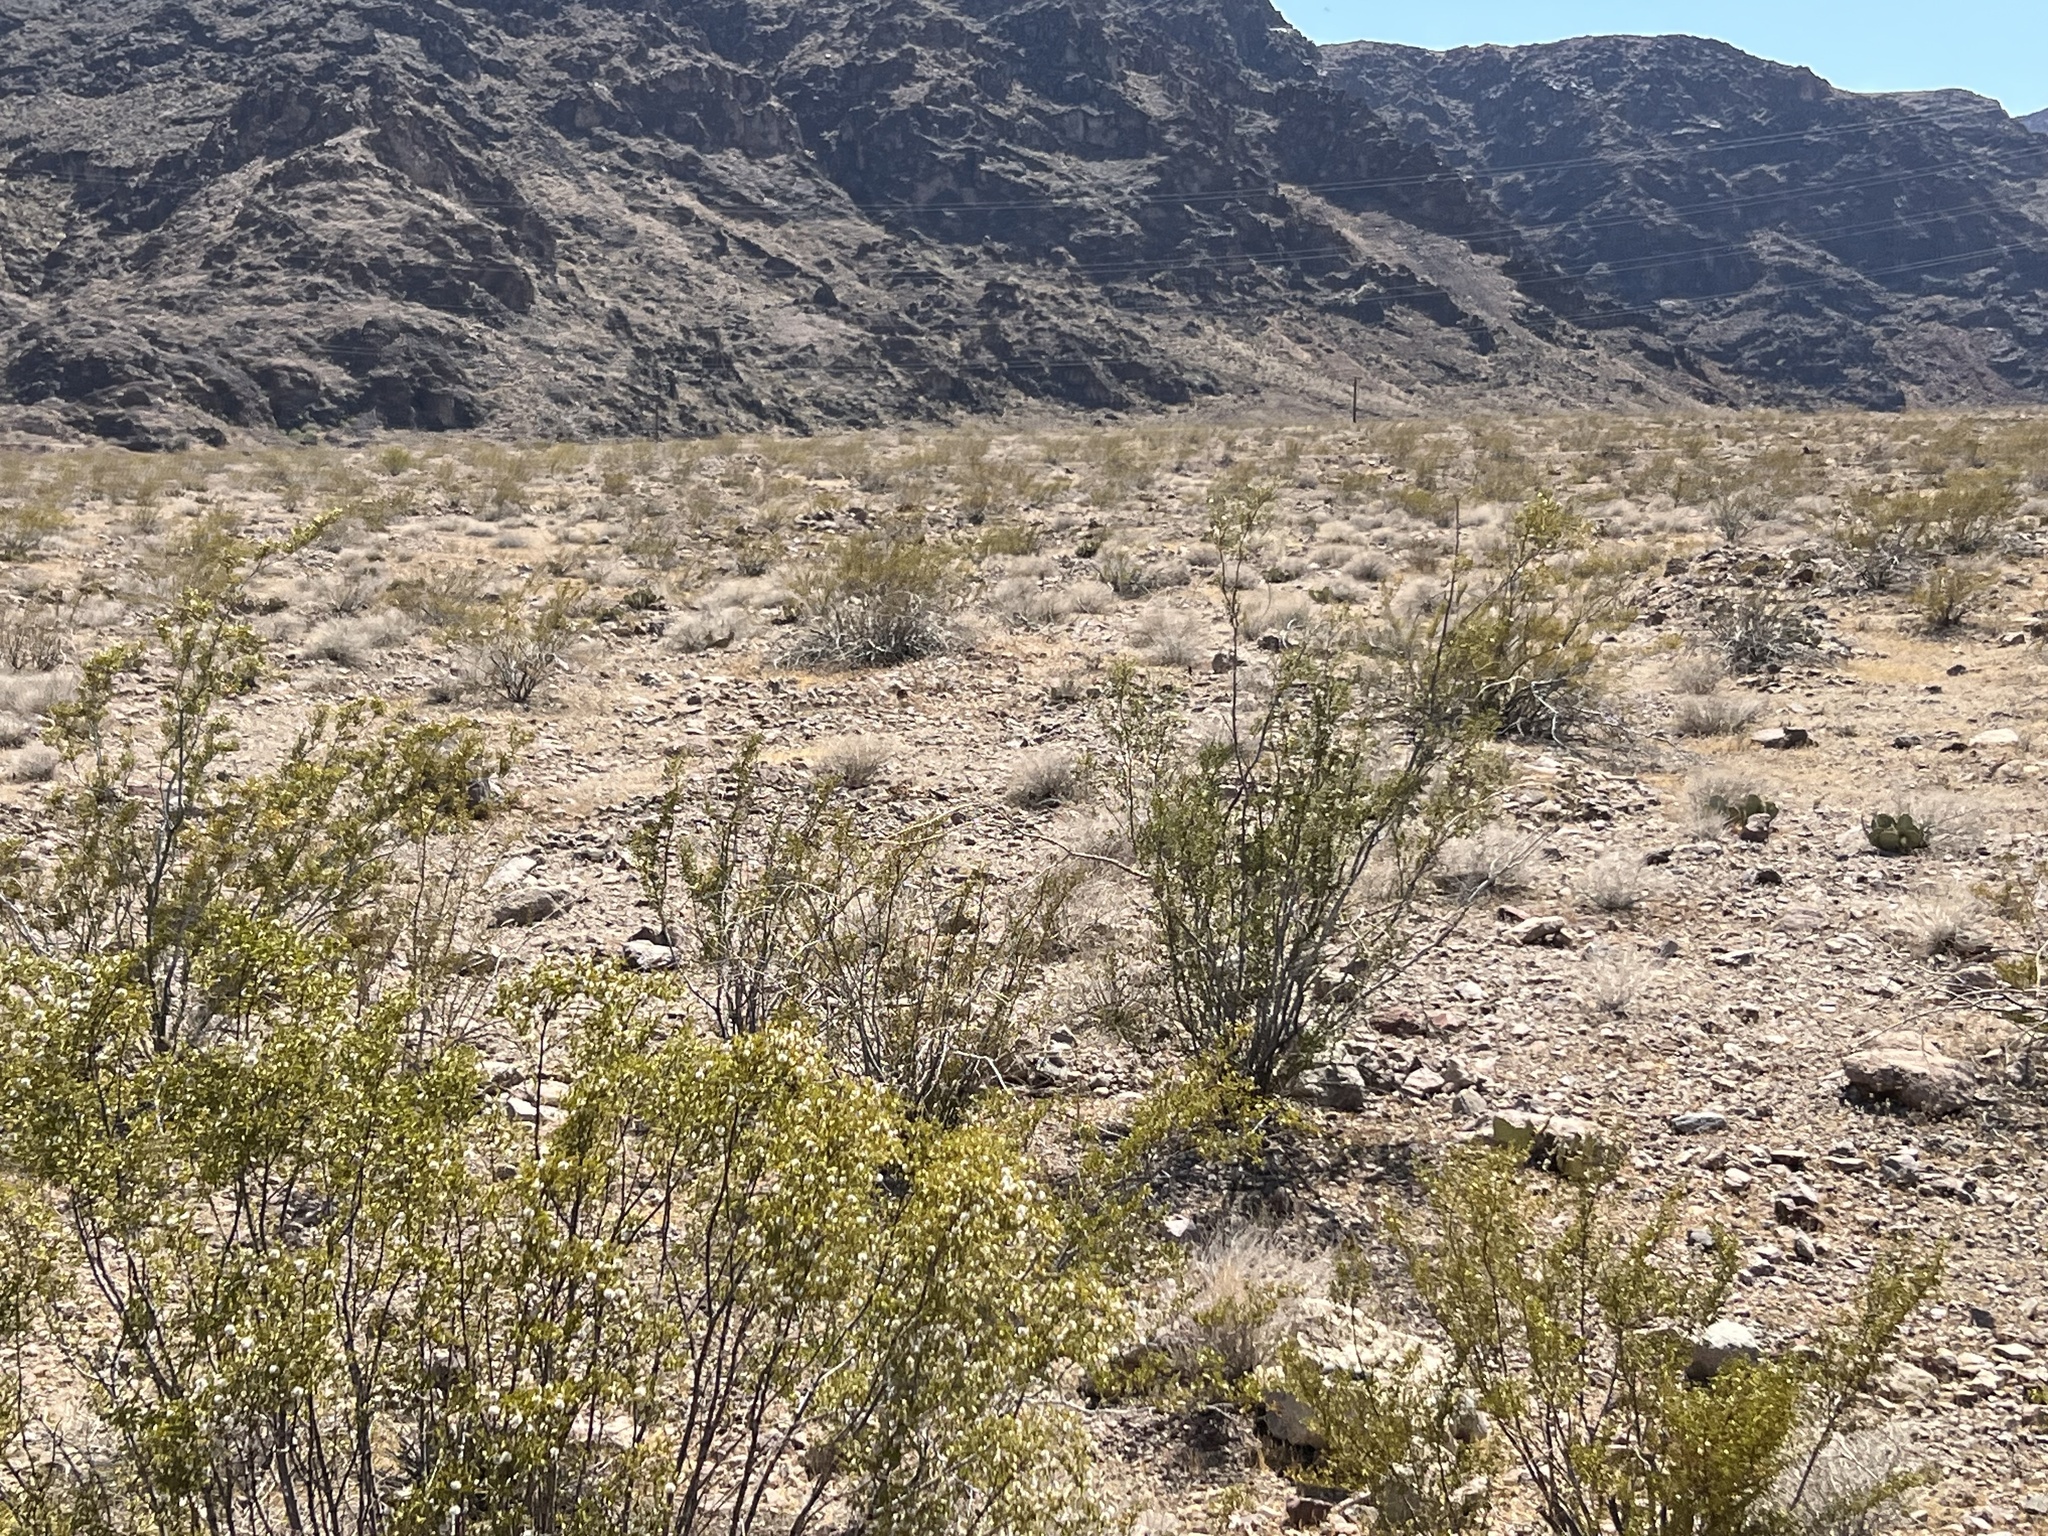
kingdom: Plantae
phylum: Tracheophyta
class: Magnoliopsida
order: Zygophyllales
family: Zygophyllaceae
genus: Larrea
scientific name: Larrea tridentata
